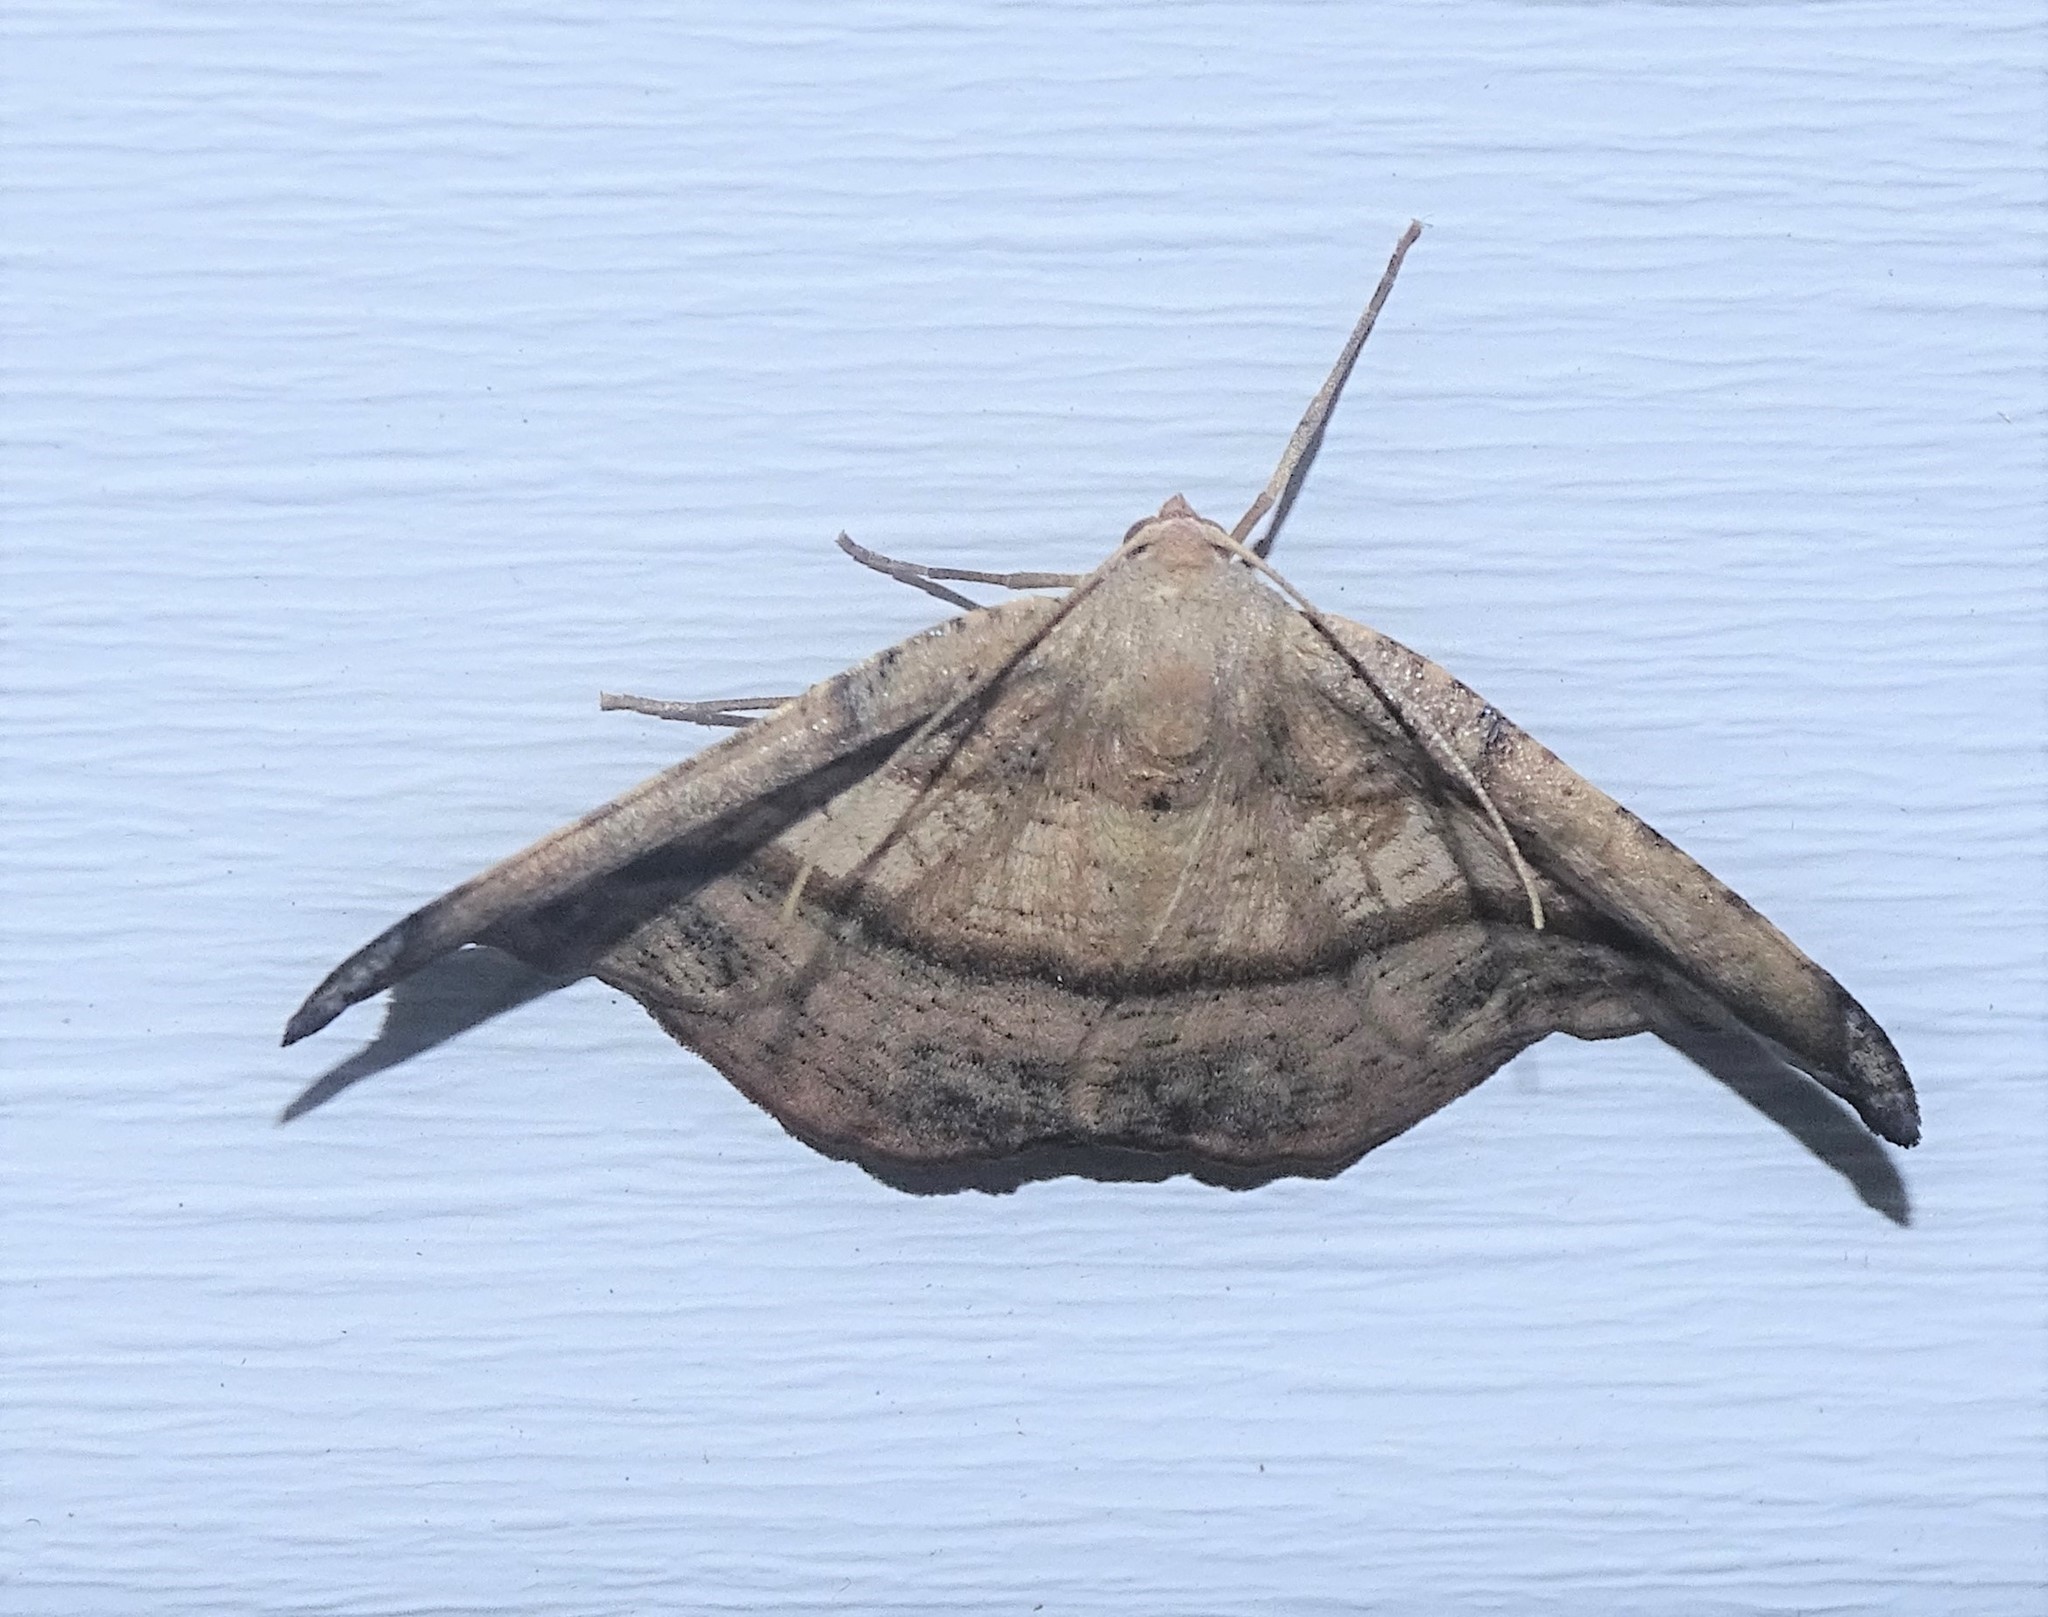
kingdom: Animalia
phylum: Arthropoda
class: Insecta
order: Lepidoptera
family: Geometridae
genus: Patalene
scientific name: Patalene olyzonaria
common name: Juniper geometer moth
